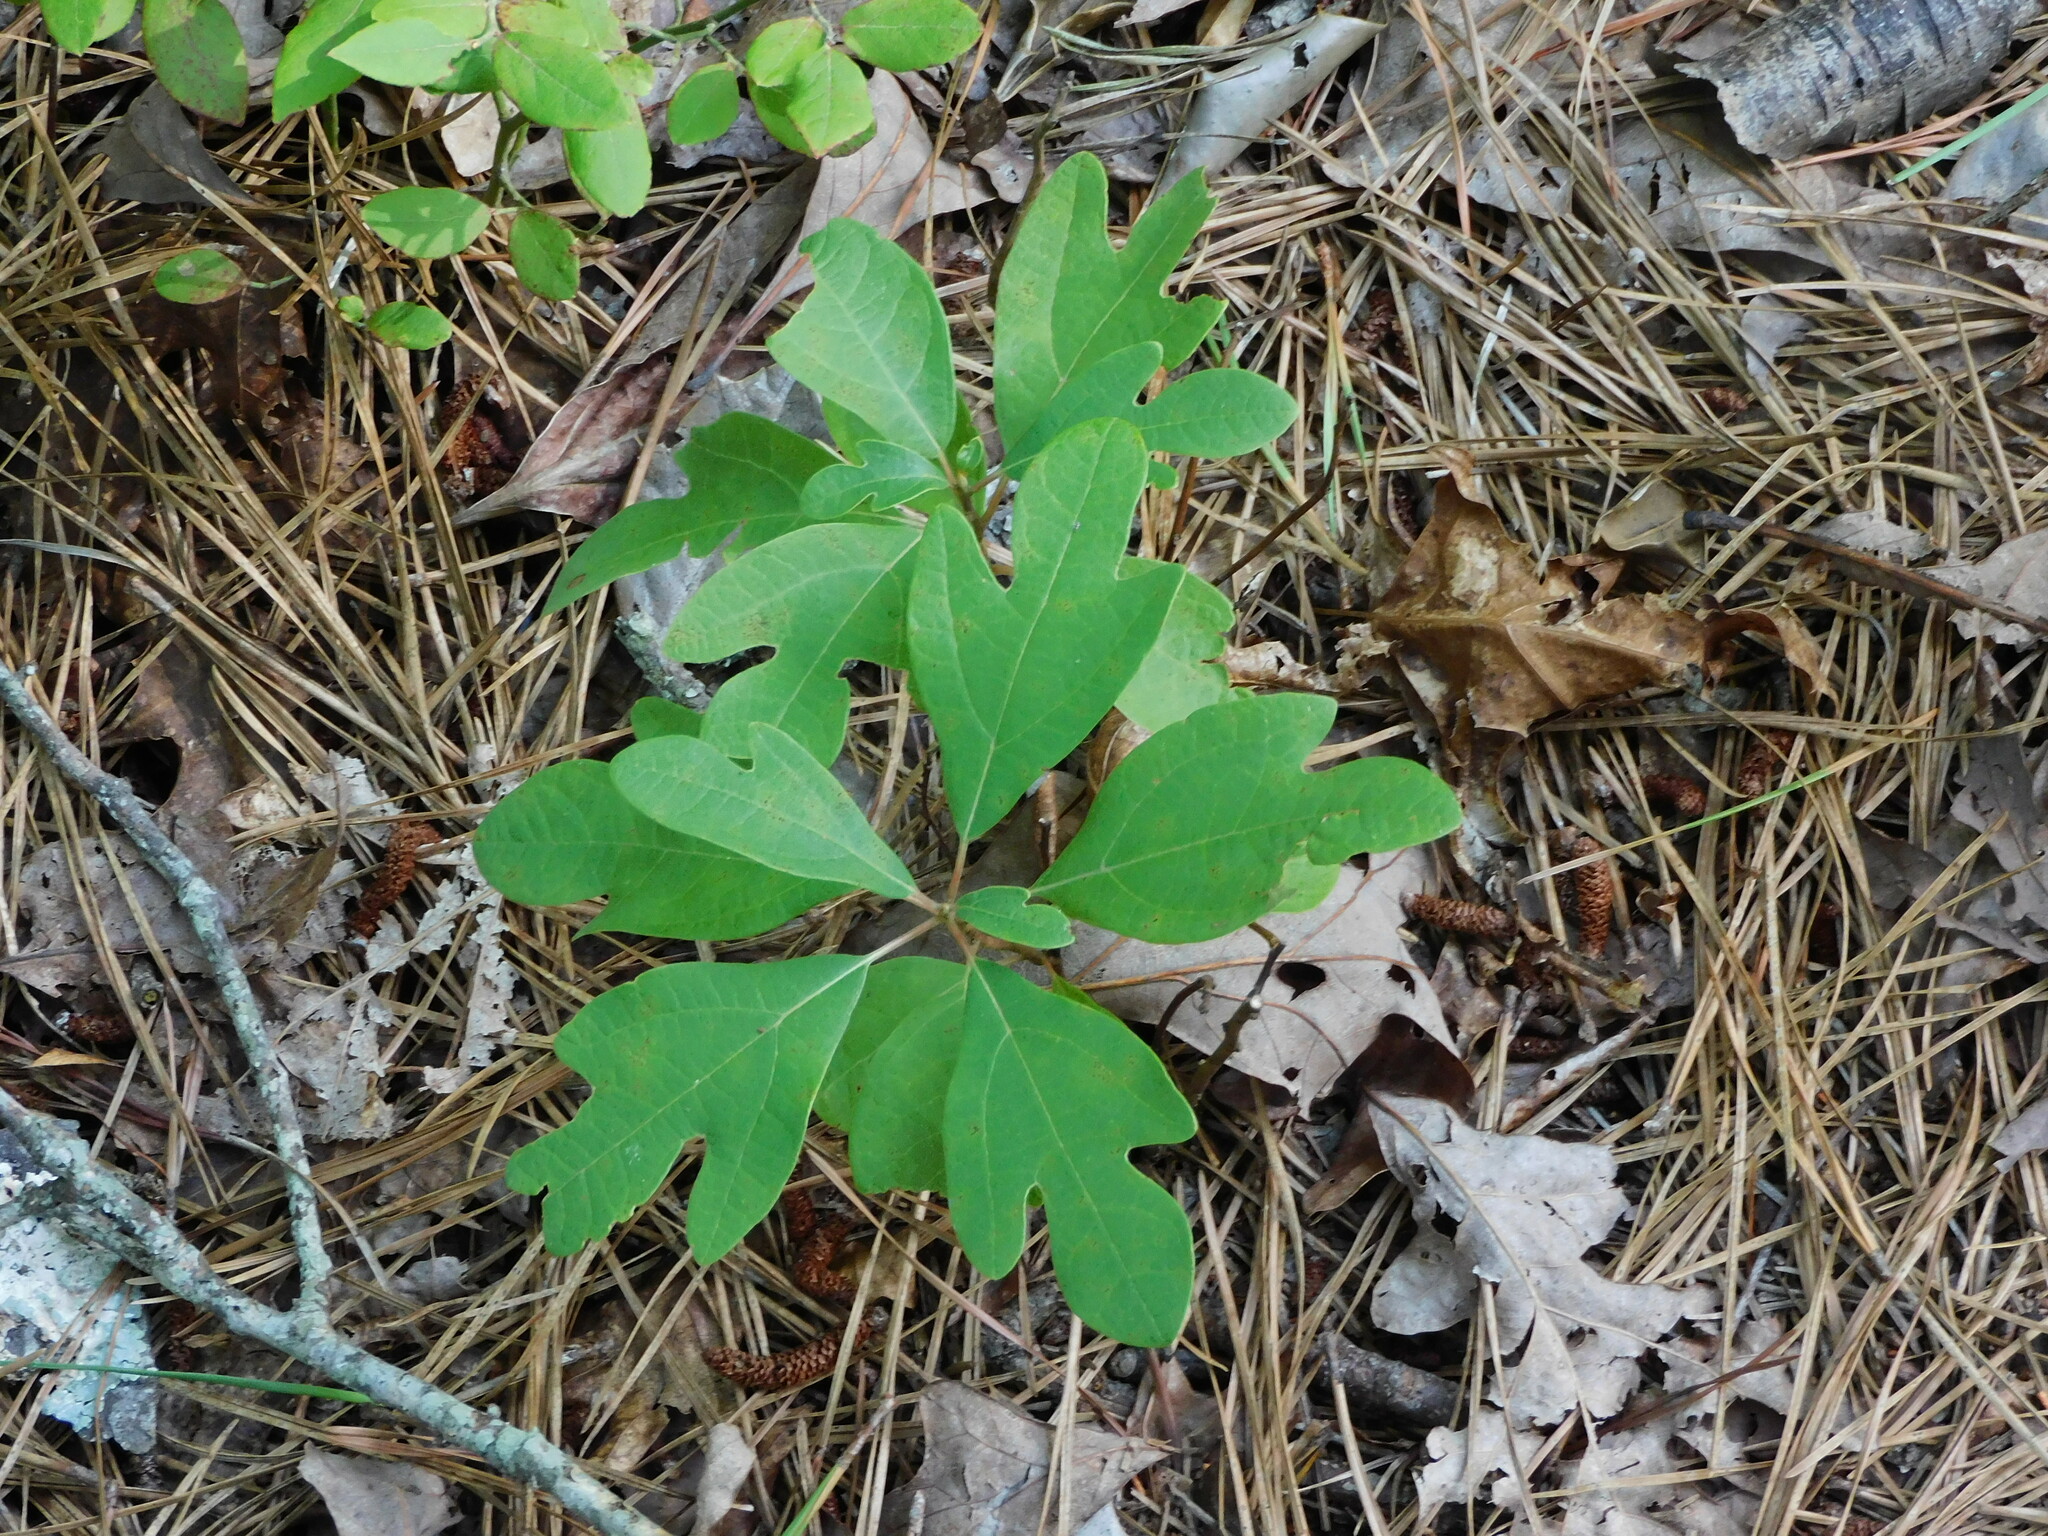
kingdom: Plantae
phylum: Tracheophyta
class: Magnoliopsida
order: Laurales
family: Lauraceae
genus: Sassafras
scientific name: Sassafras albidum
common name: Sassafras
